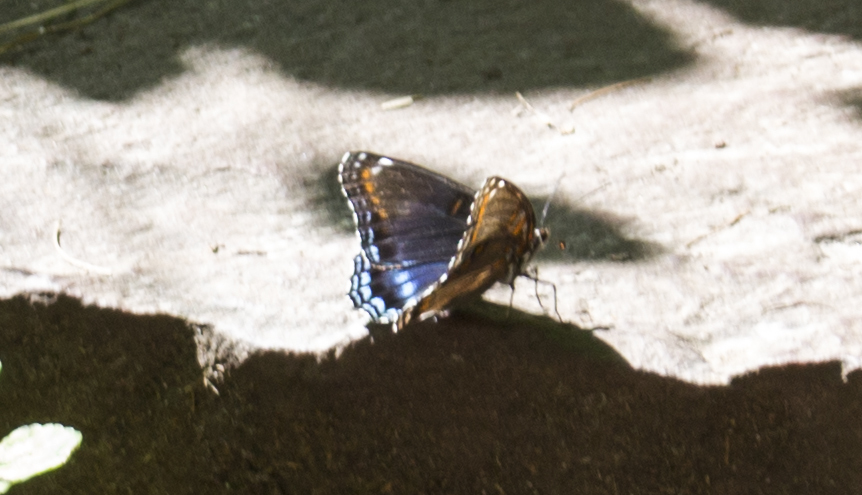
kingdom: Animalia
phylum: Arthropoda
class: Insecta
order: Lepidoptera
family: Nymphalidae
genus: Limenitis
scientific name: Limenitis astyanax
